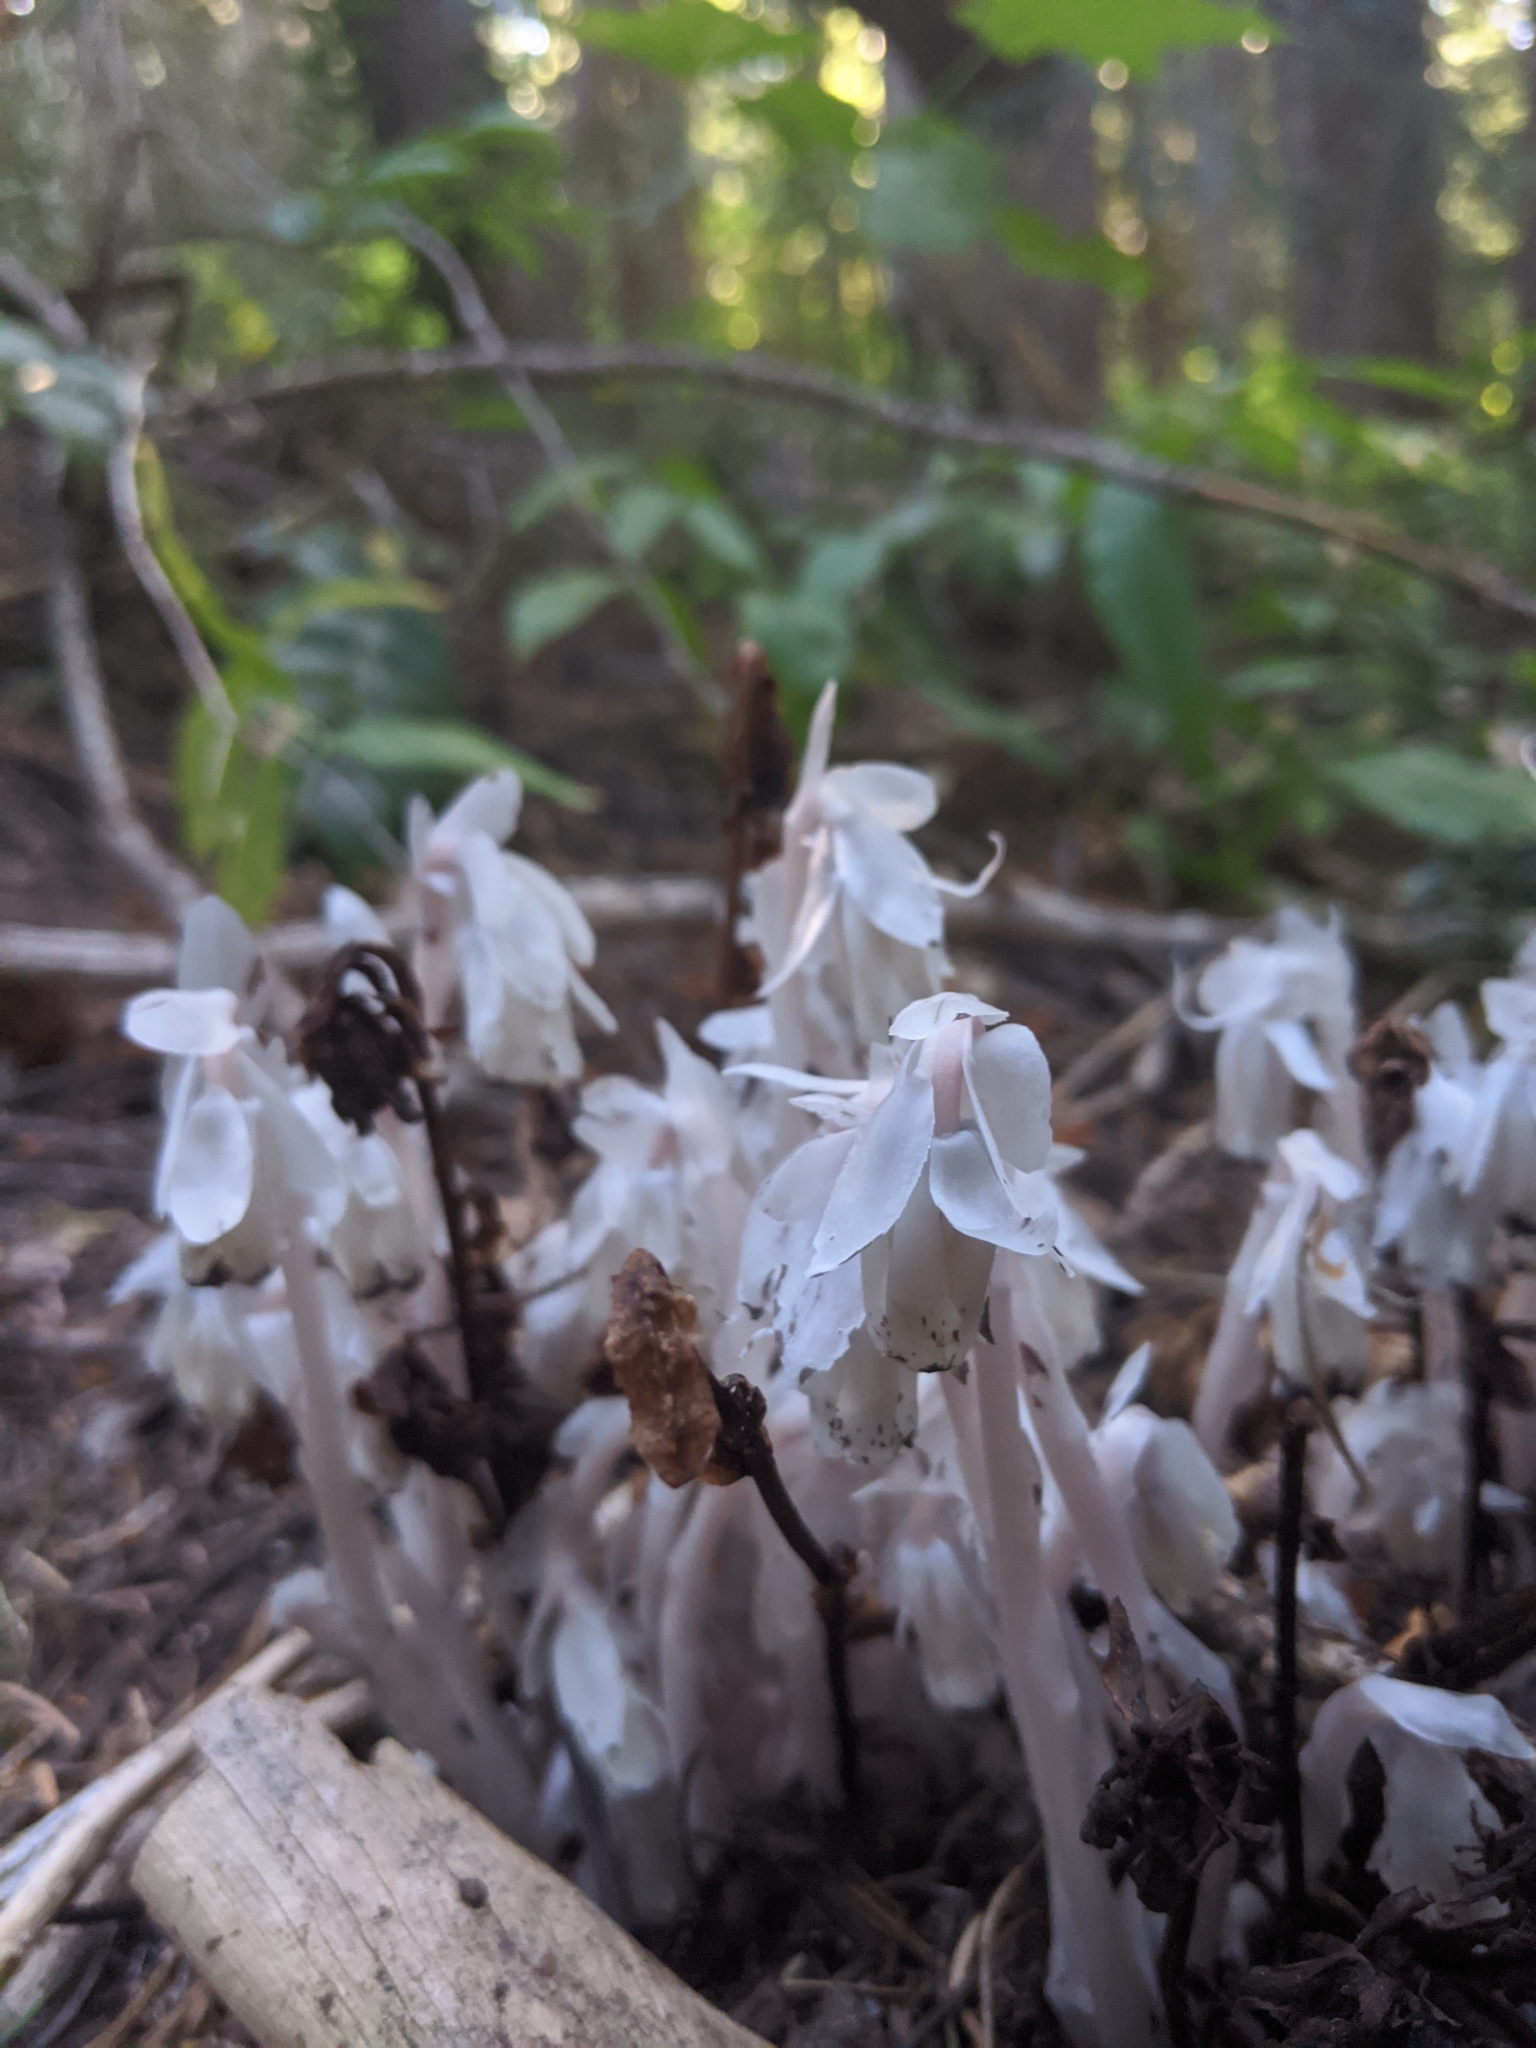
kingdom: Plantae
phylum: Tracheophyta
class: Magnoliopsida
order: Ericales
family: Ericaceae
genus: Monotropa
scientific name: Monotropa uniflora
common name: Convulsion root
